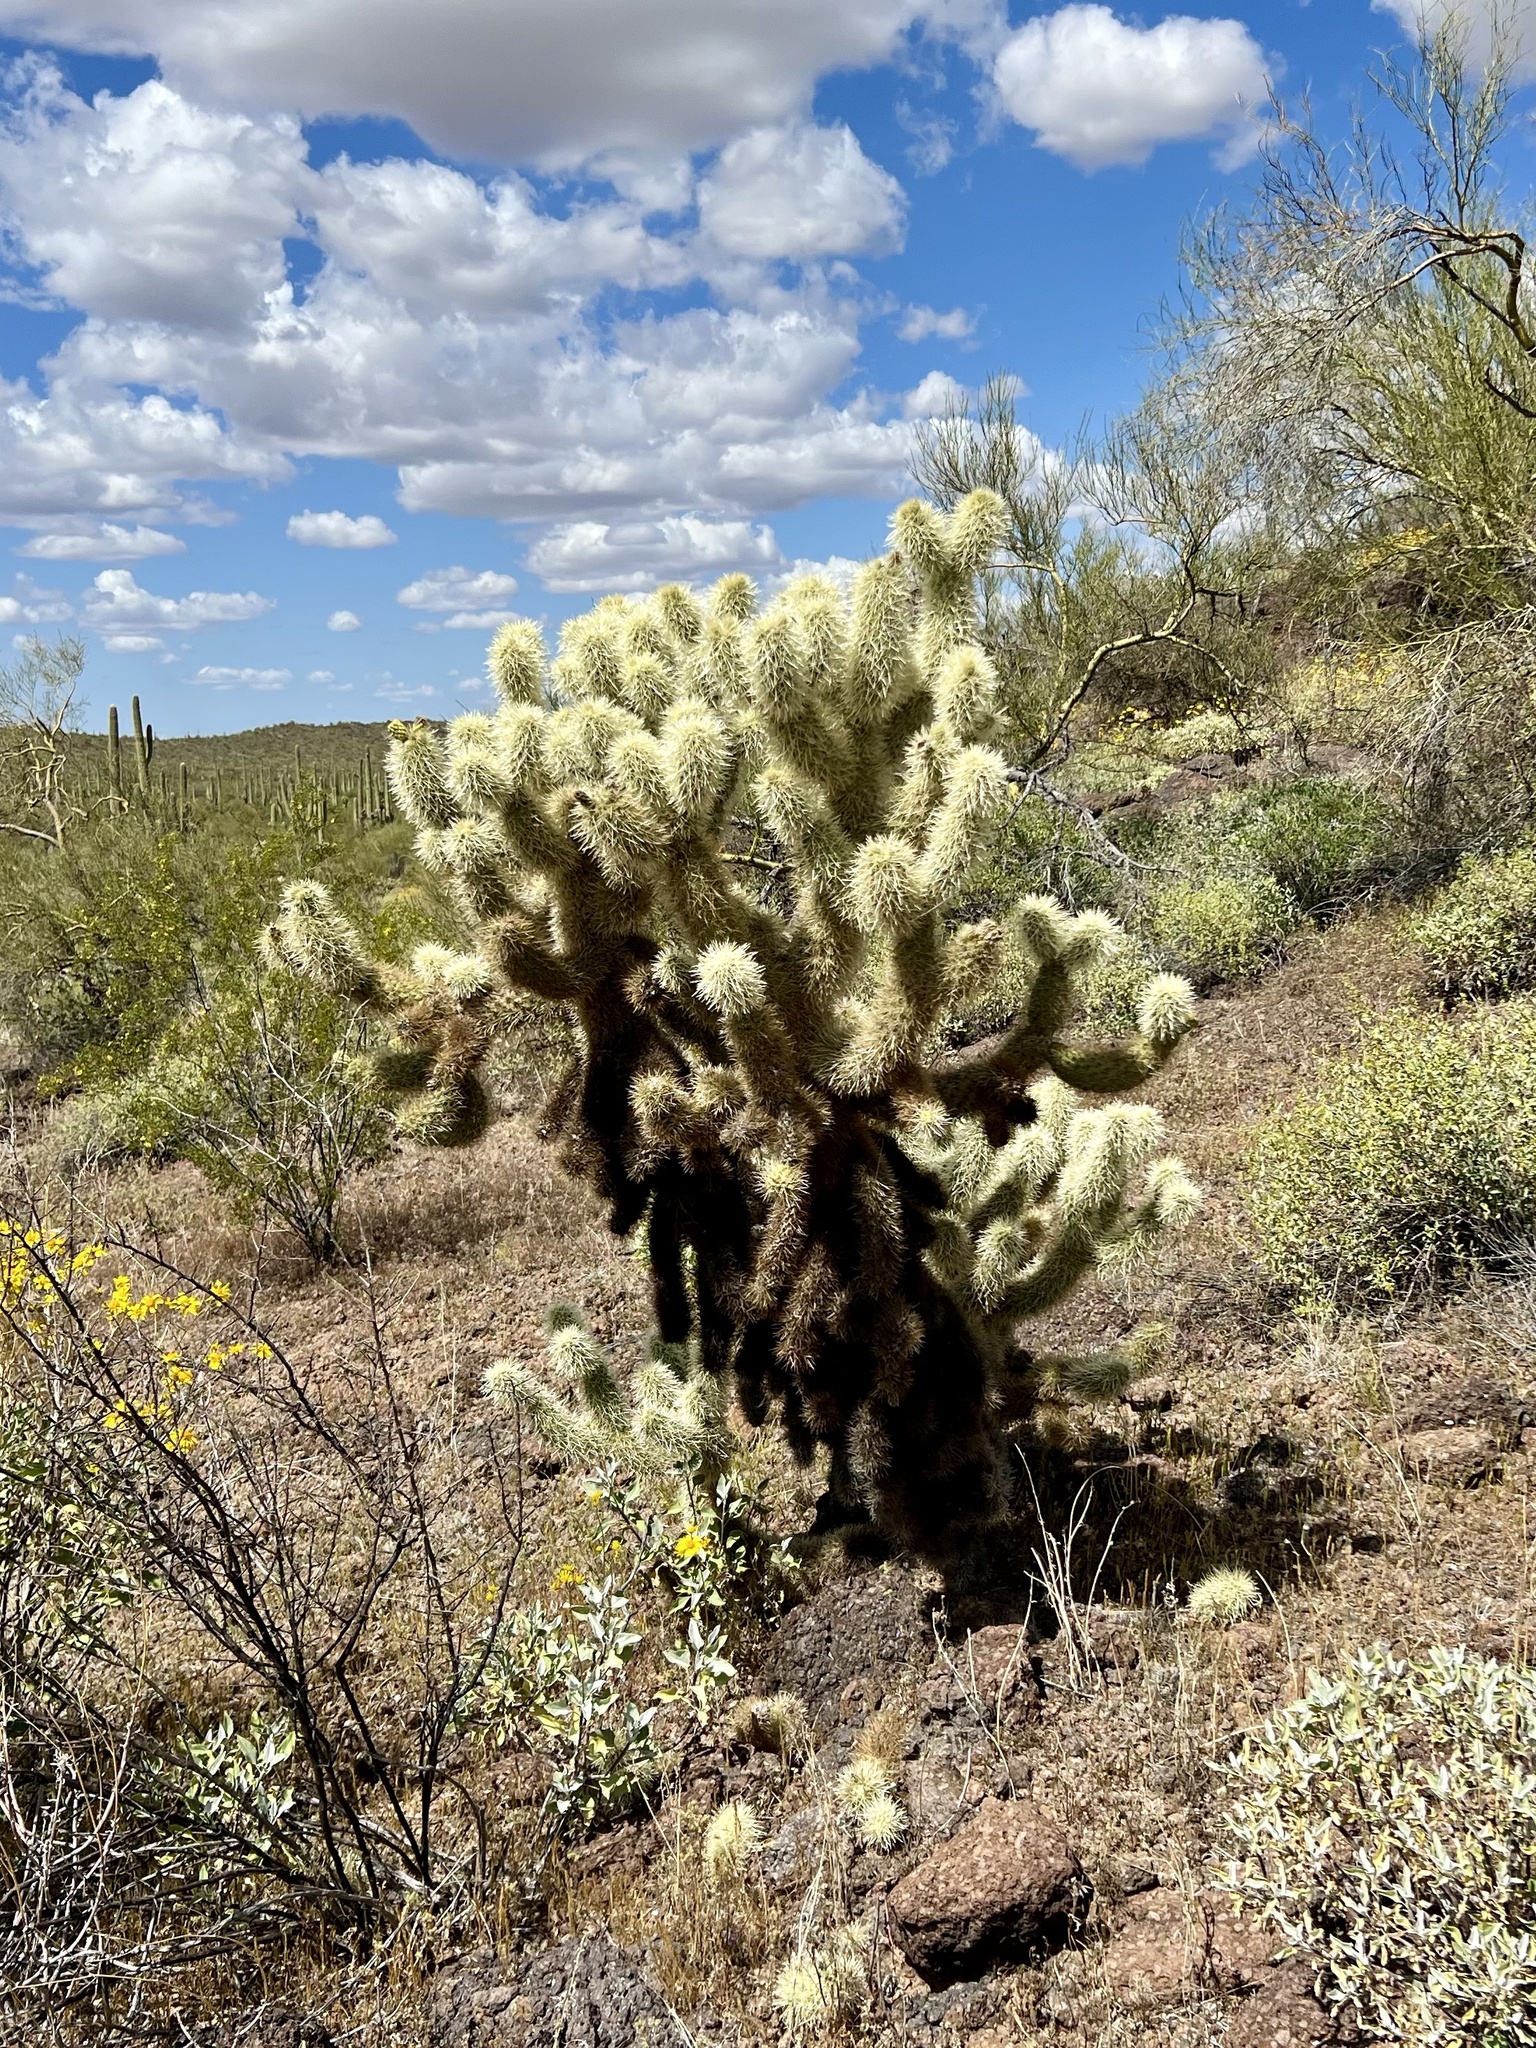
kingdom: Plantae
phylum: Tracheophyta
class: Magnoliopsida
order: Caryophyllales
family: Cactaceae
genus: Cylindropuntia
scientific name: Cylindropuntia fosbergii
